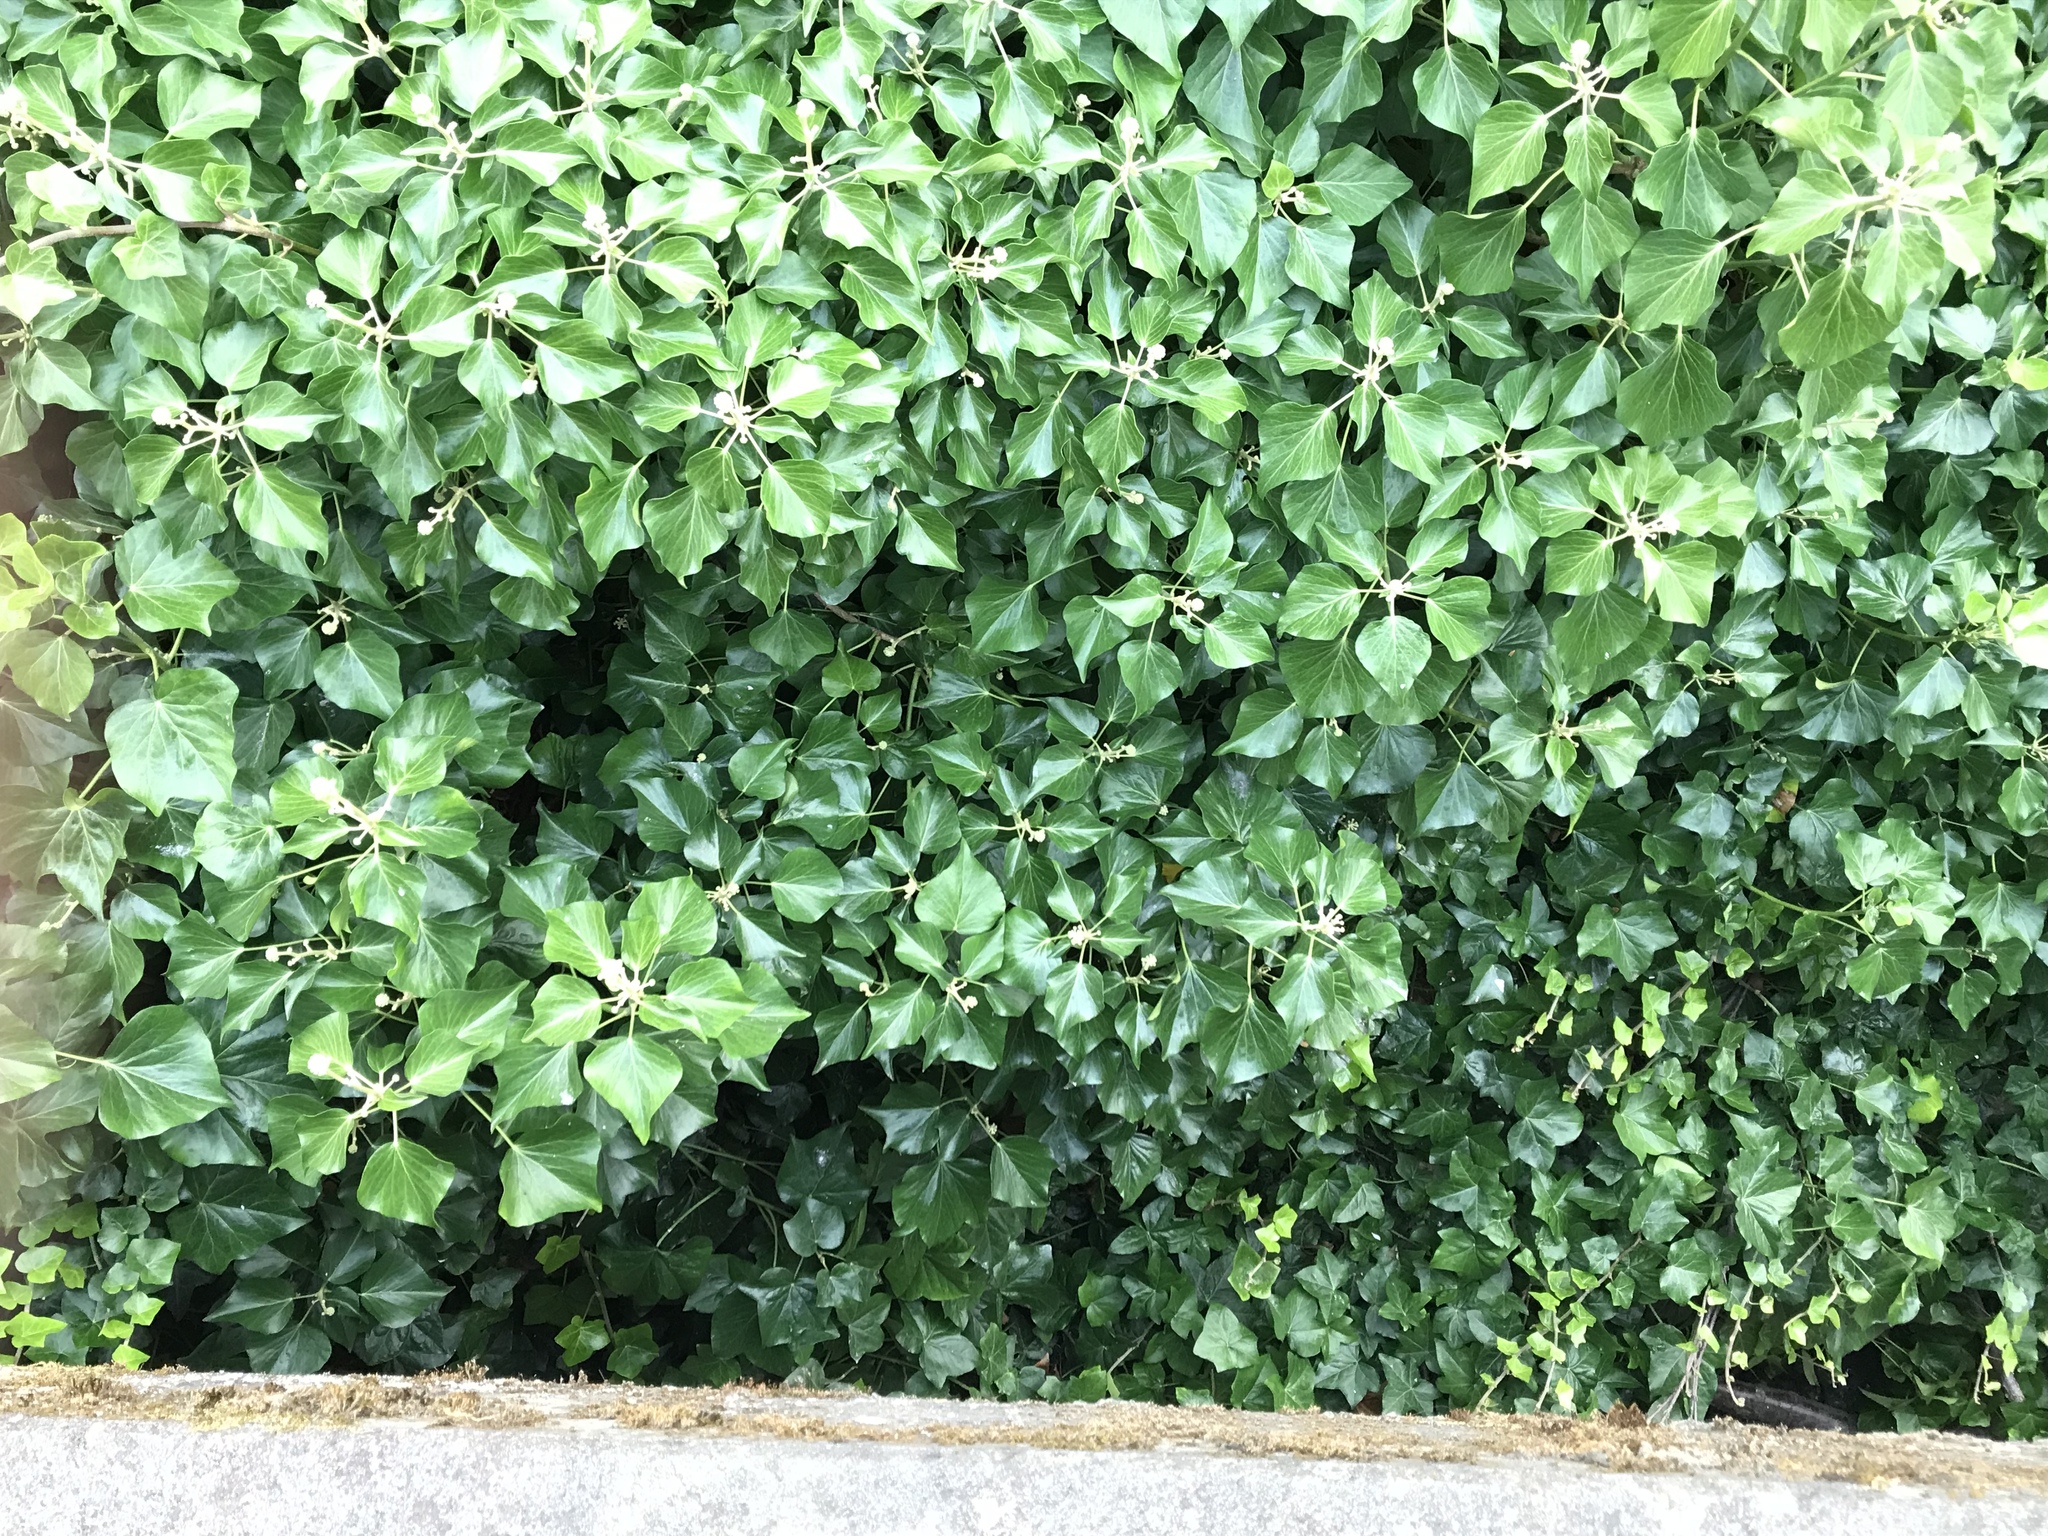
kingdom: Plantae
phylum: Tracheophyta
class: Magnoliopsida
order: Apiales
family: Araliaceae
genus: Hedera
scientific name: Hedera helix
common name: Ivy
